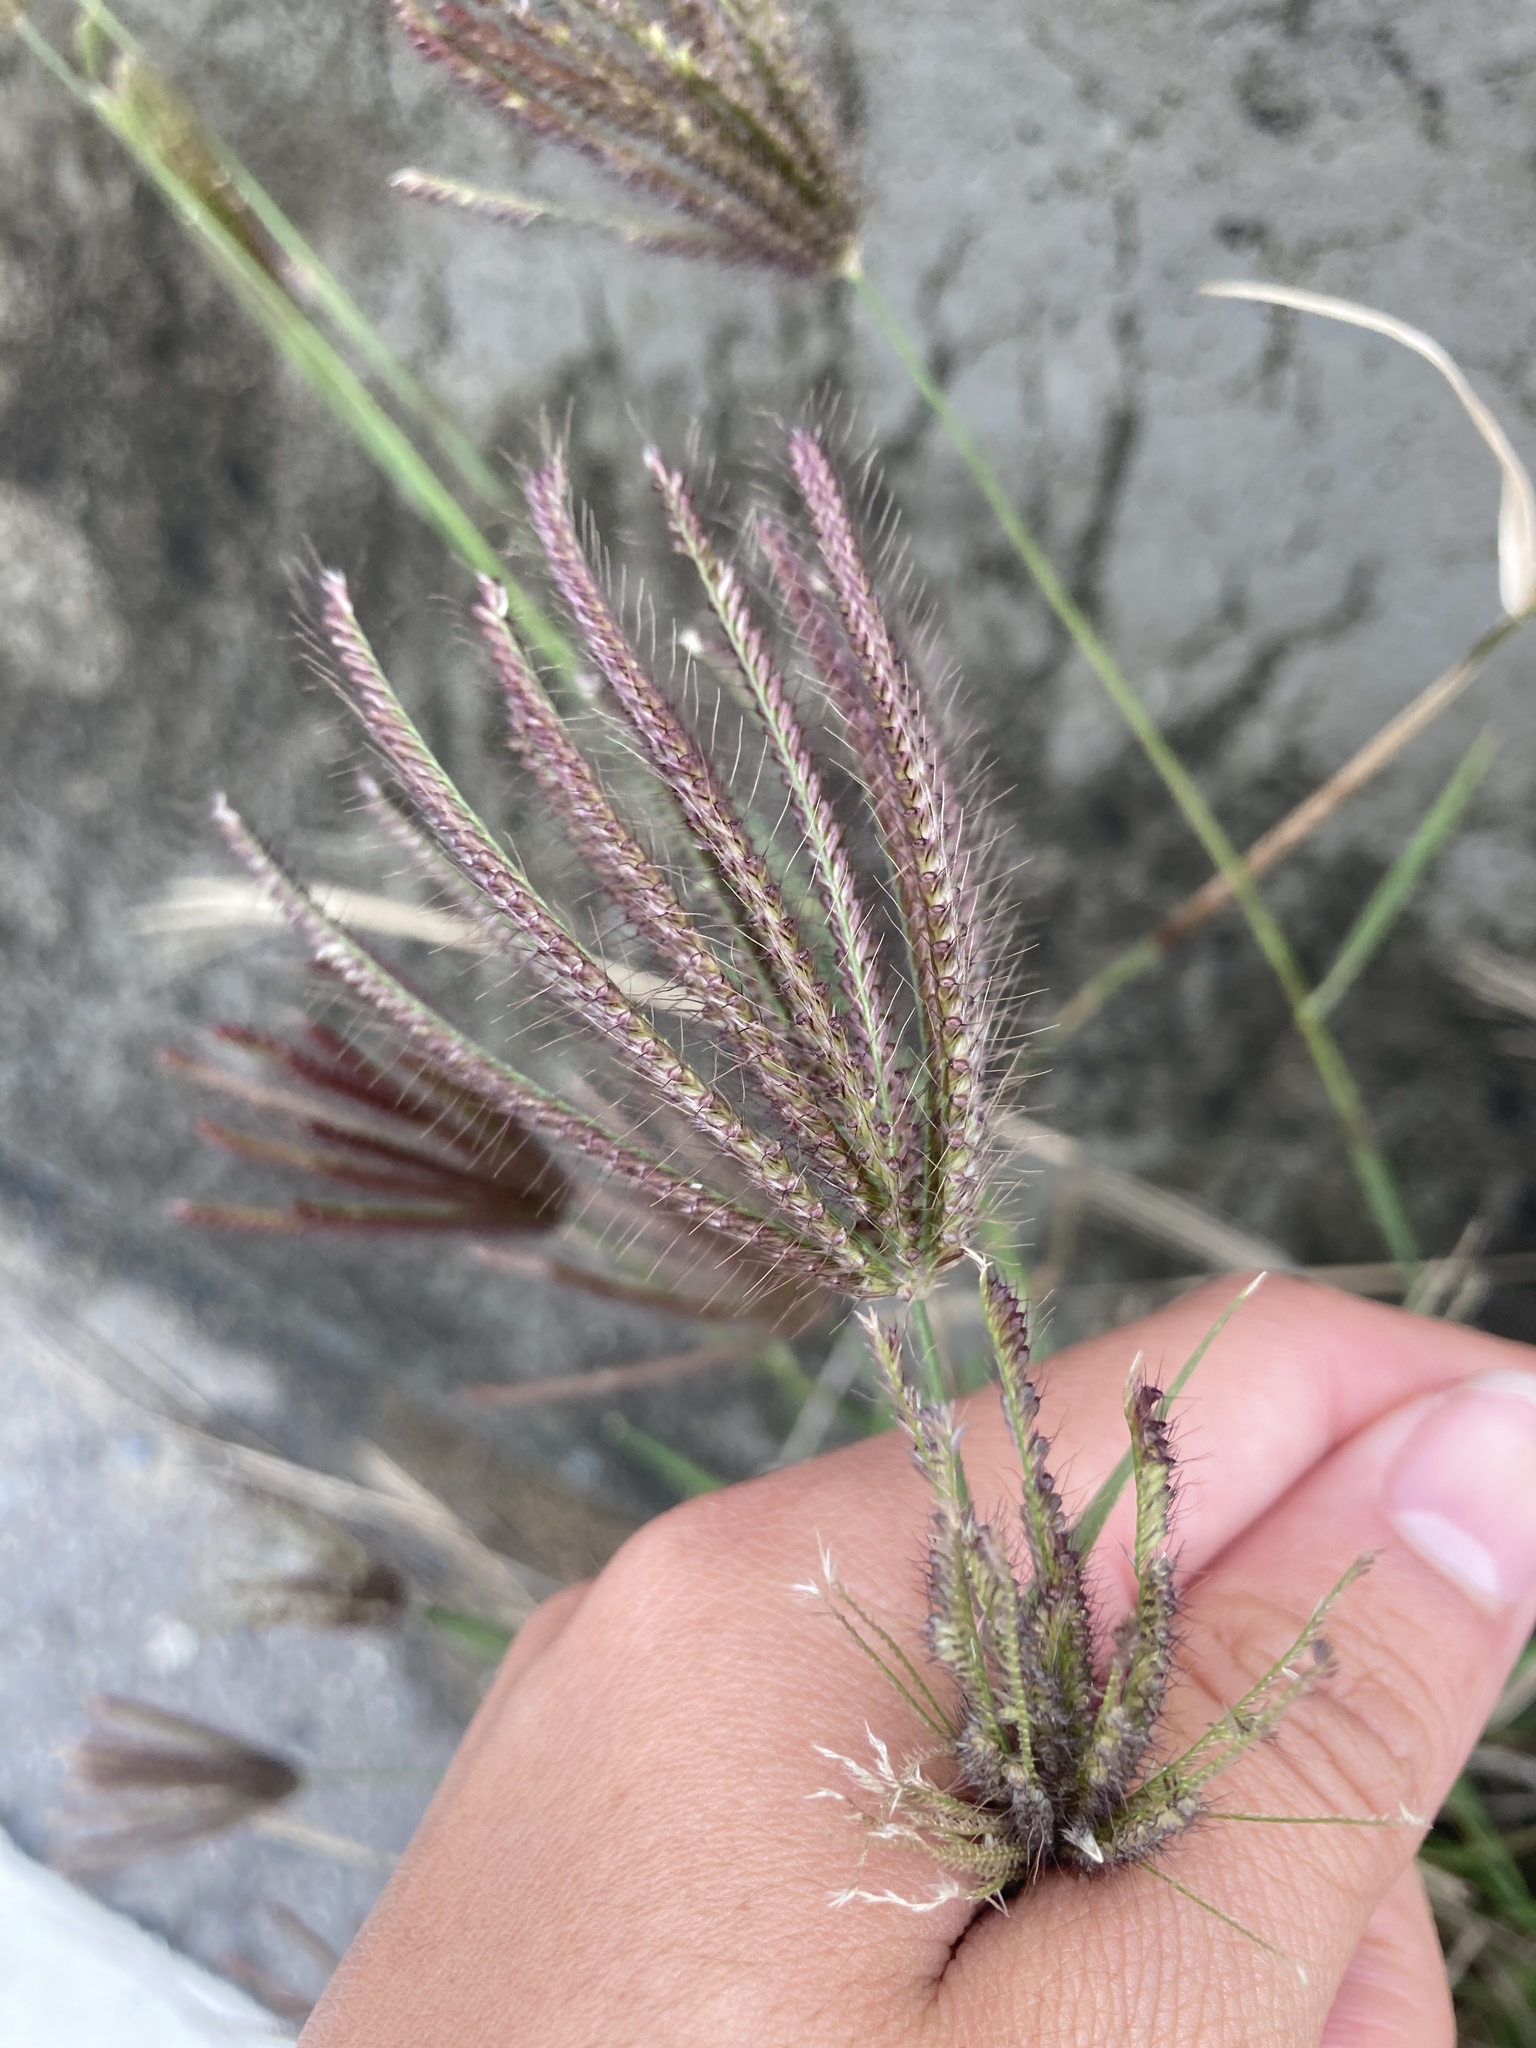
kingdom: Plantae
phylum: Tracheophyta
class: Liliopsida
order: Poales
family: Poaceae
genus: Chloris
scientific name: Chloris barbata
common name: Swollen fingergrass
